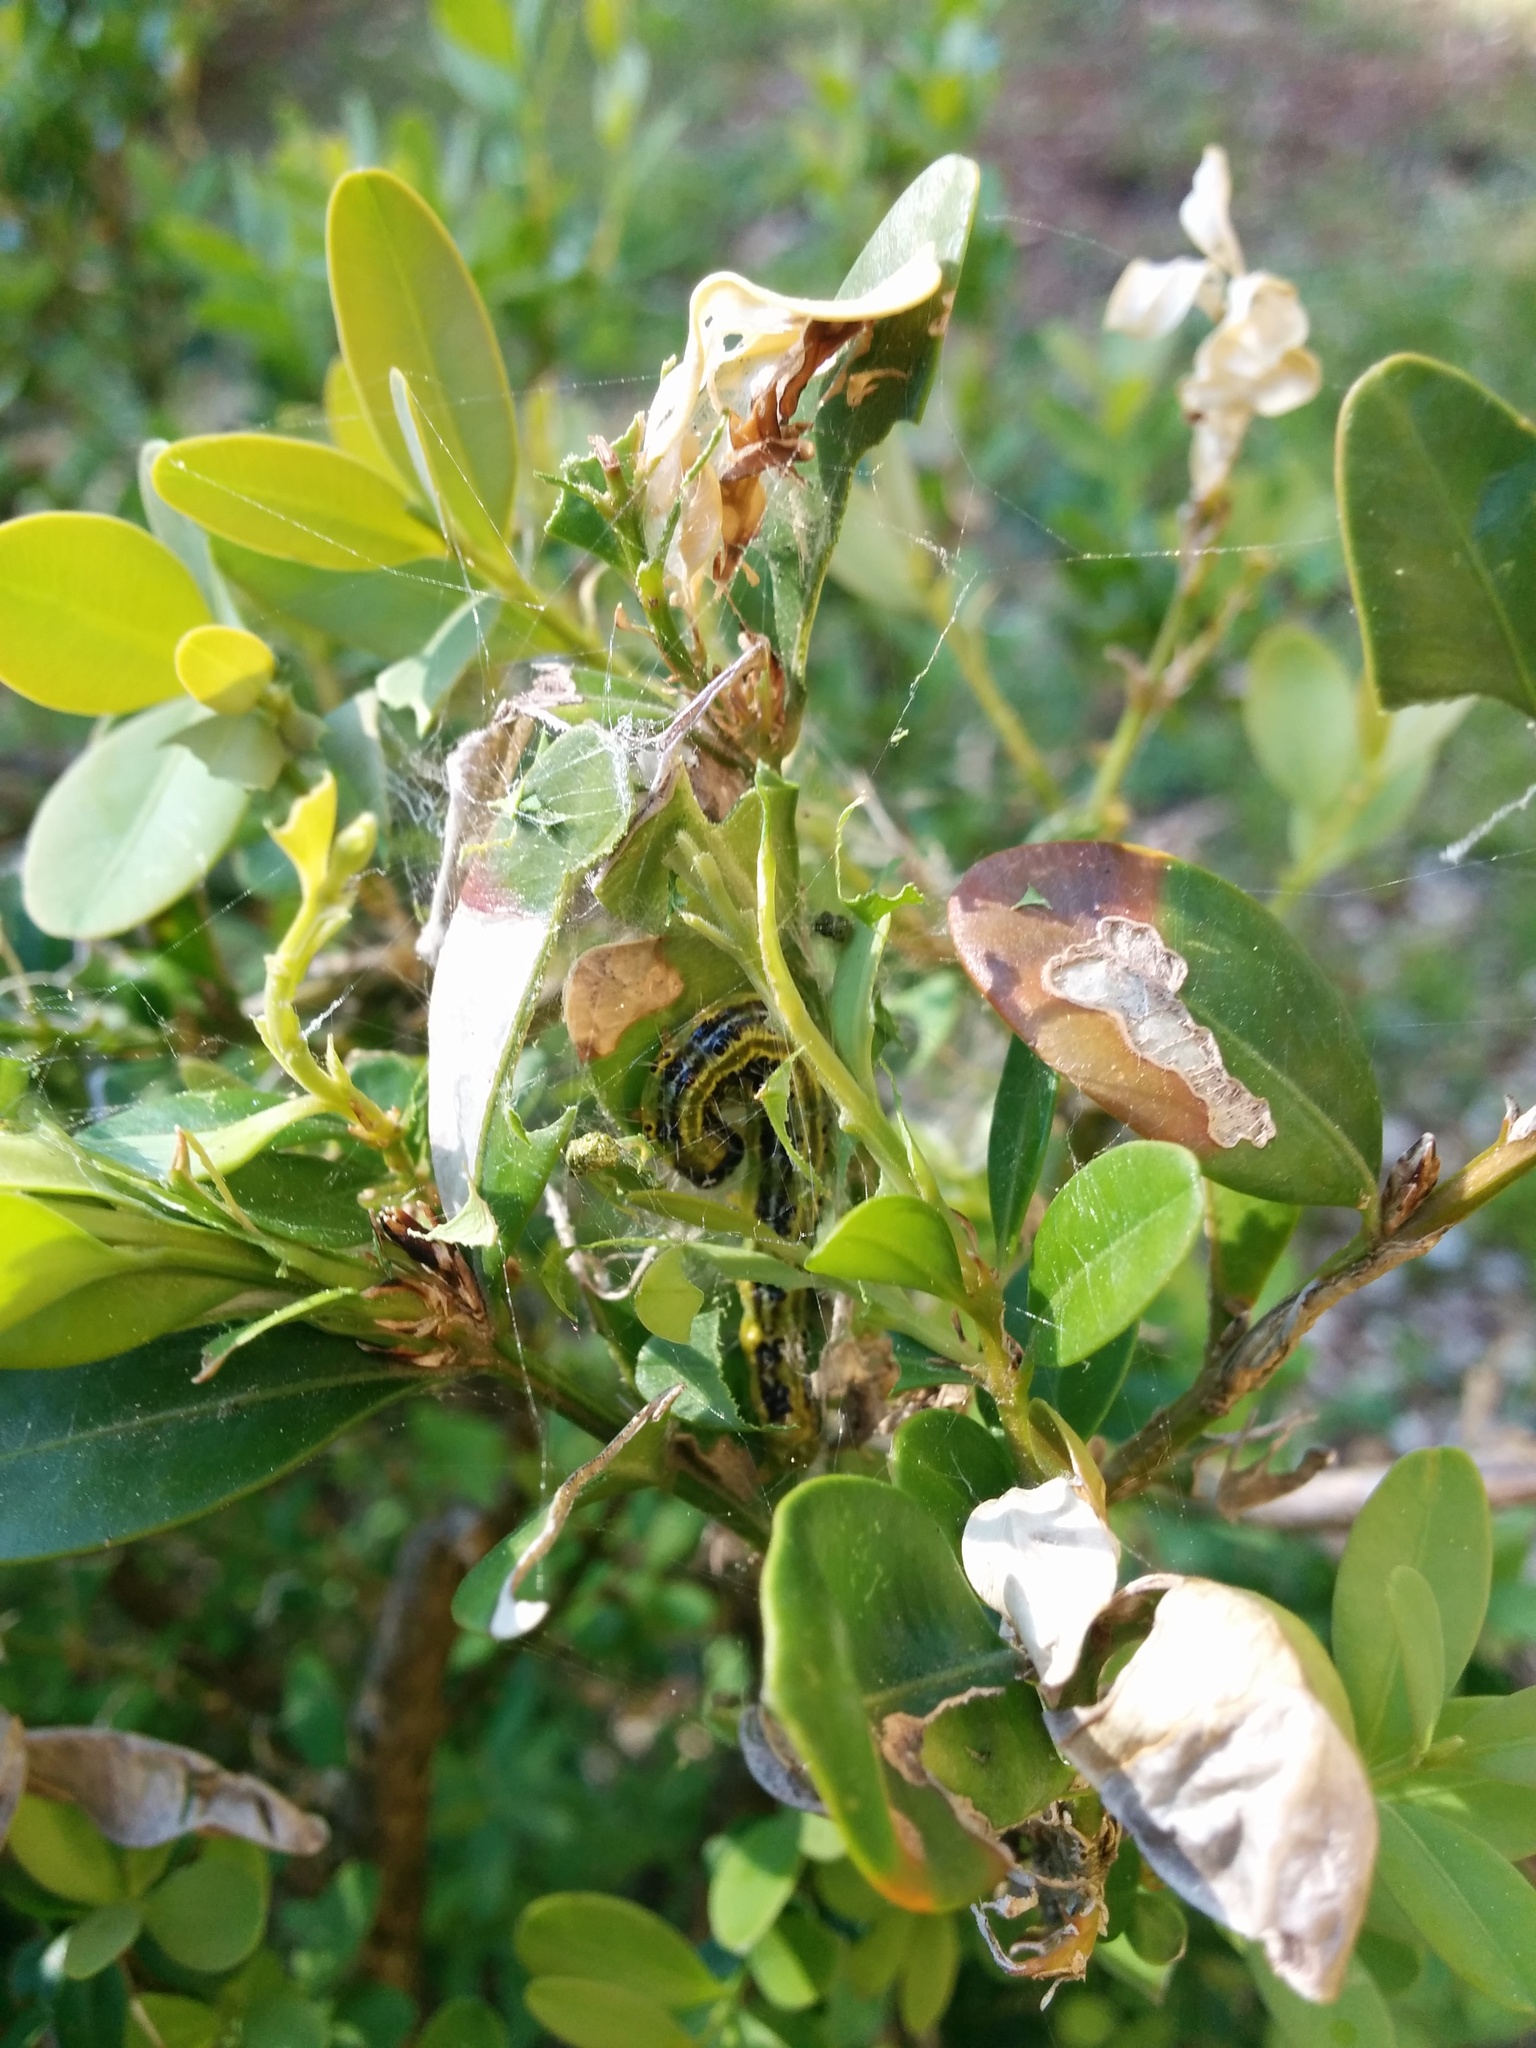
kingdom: Animalia
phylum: Arthropoda
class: Insecta
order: Lepidoptera
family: Crambidae
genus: Cydalima
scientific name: Cydalima perspectalis
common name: Box tree moth
